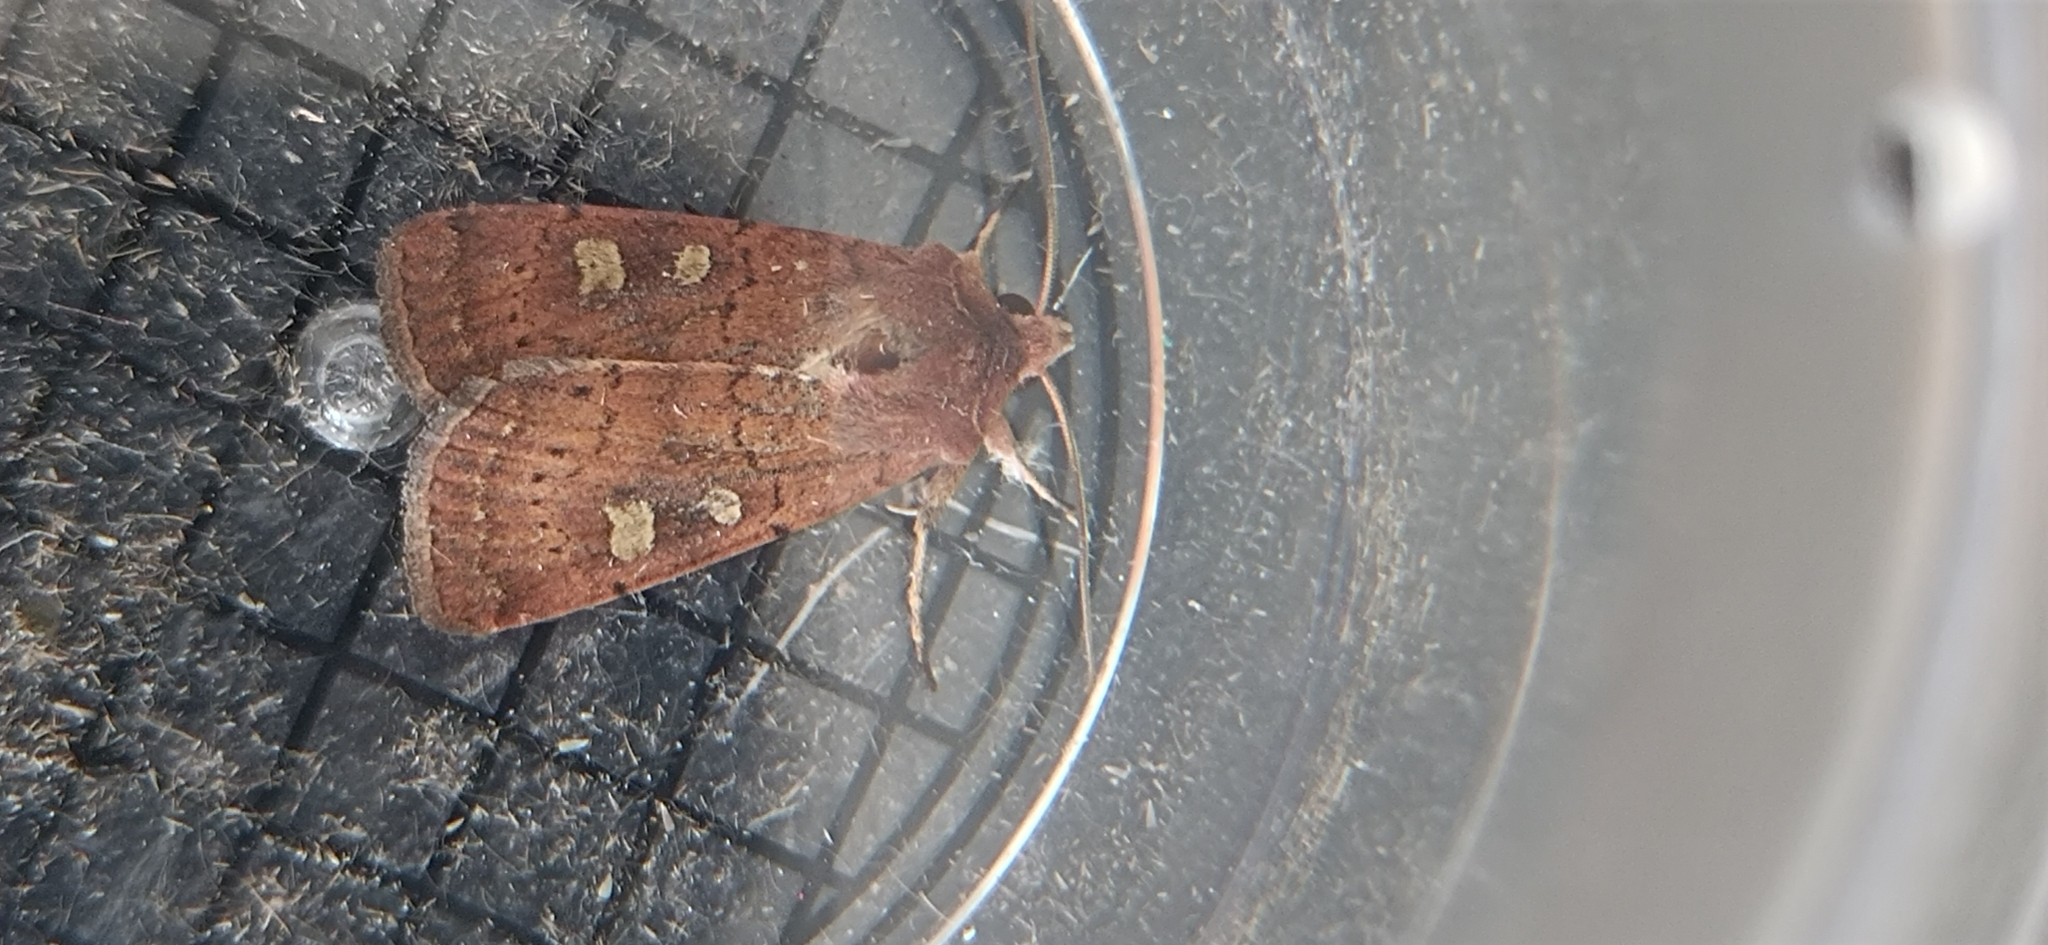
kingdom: Animalia
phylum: Arthropoda
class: Insecta
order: Lepidoptera
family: Noctuidae
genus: Xestia
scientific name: Xestia xanthographa
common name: Square-spot rustic
